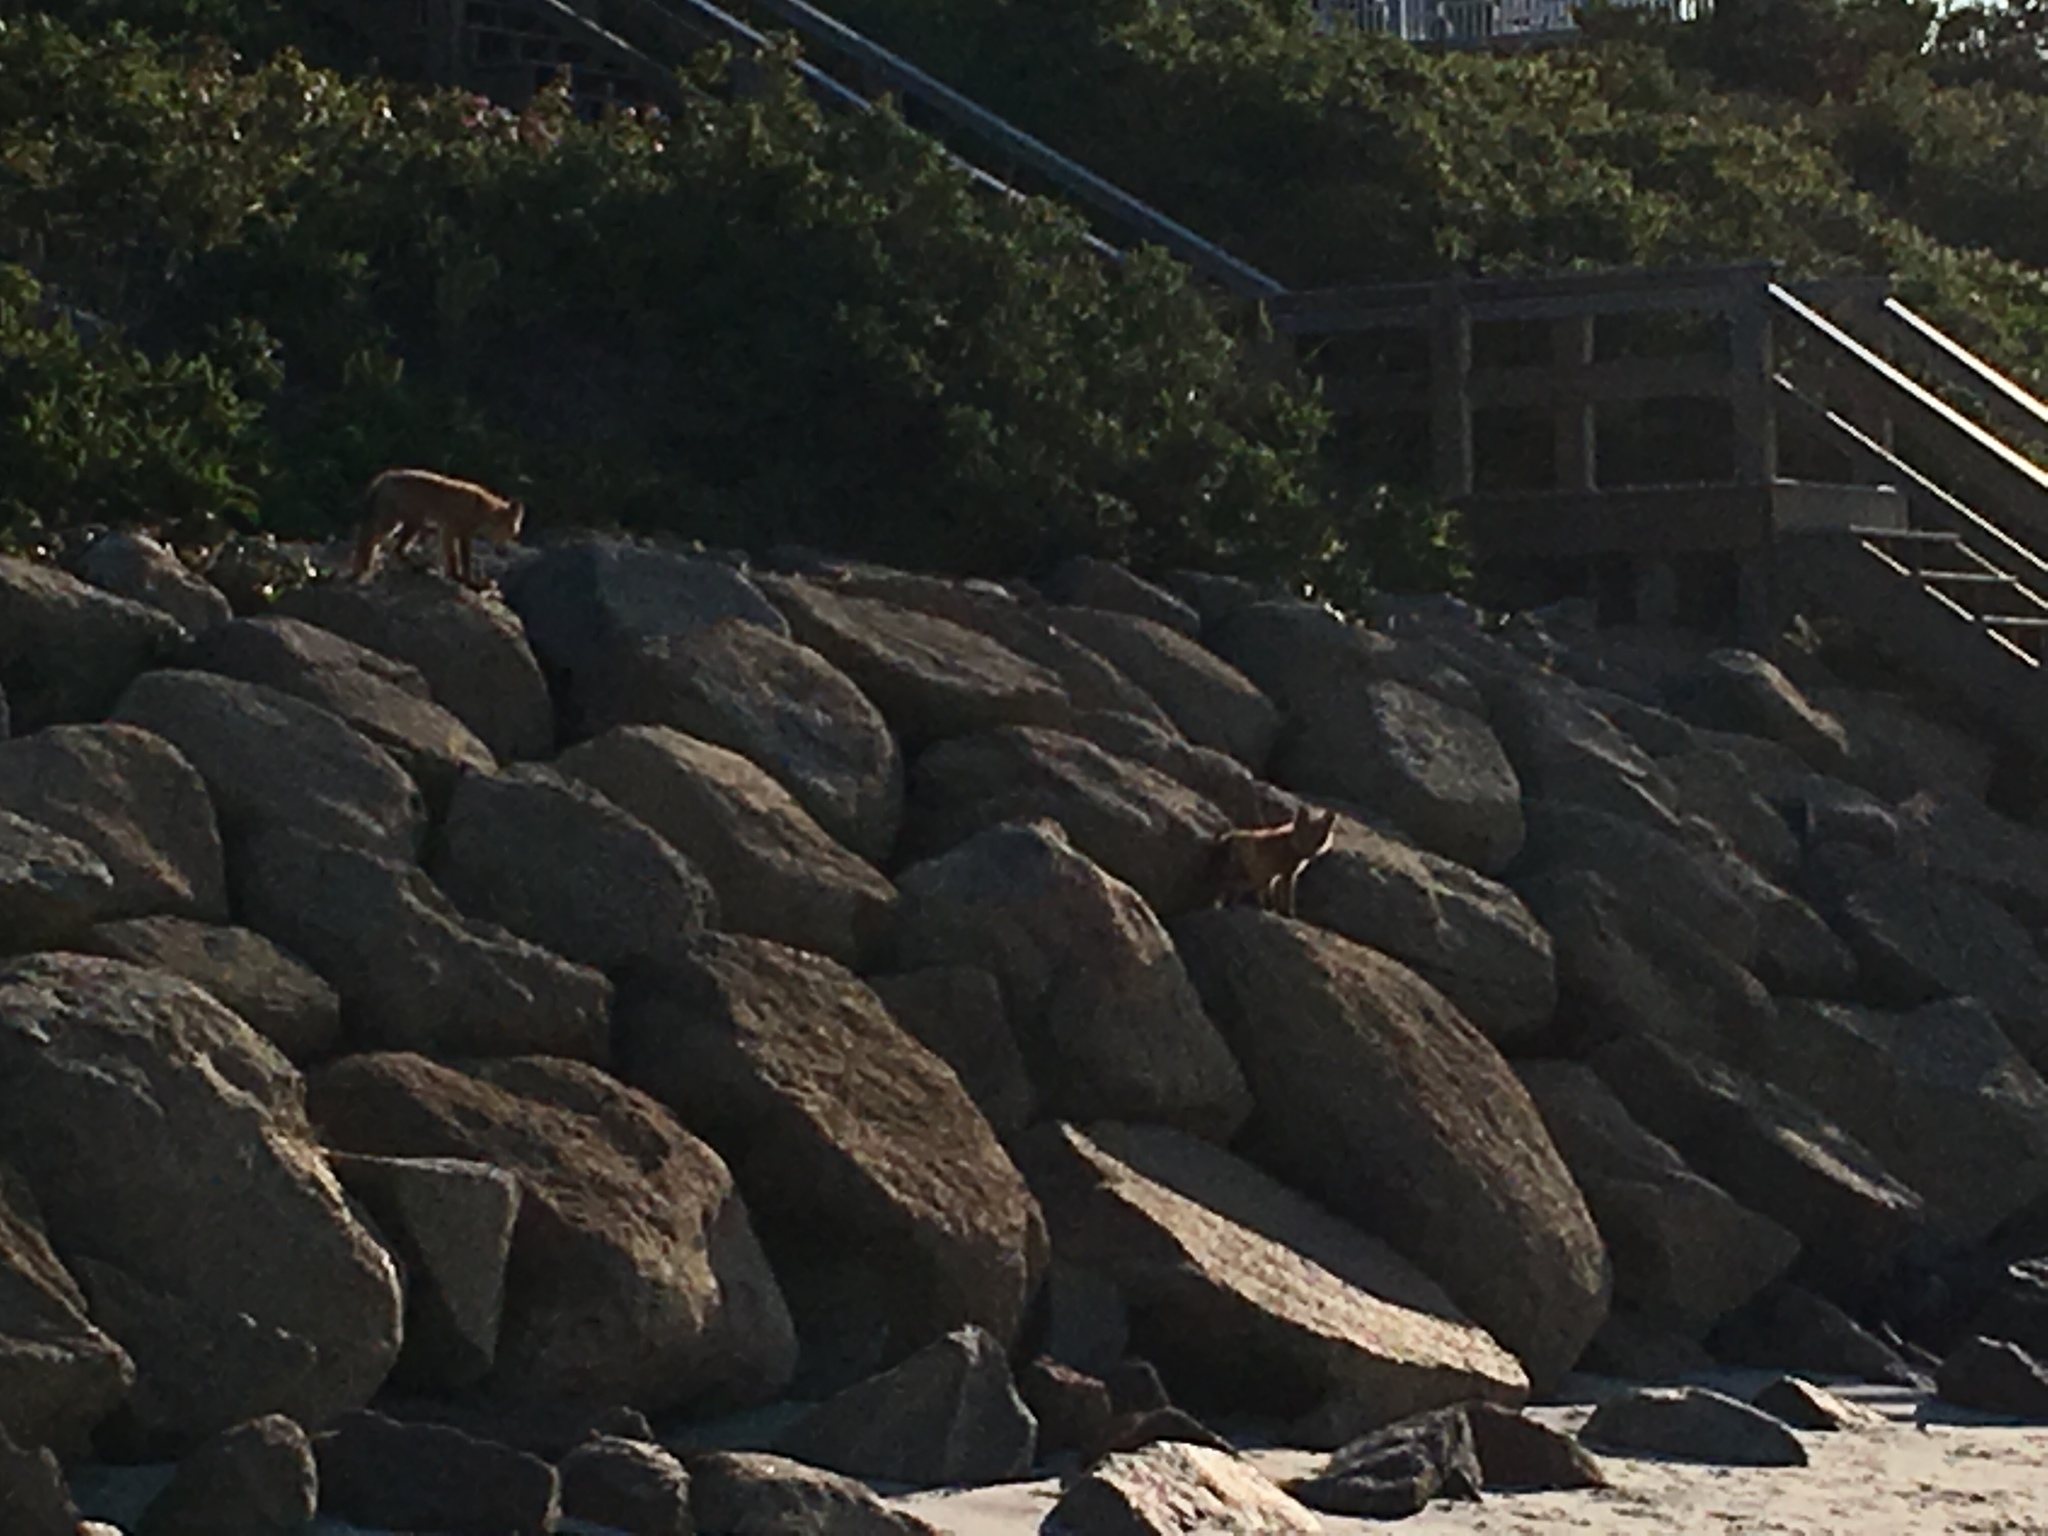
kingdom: Animalia
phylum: Chordata
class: Mammalia
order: Carnivora
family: Canidae
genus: Vulpes
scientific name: Vulpes vulpes
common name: Red fox
